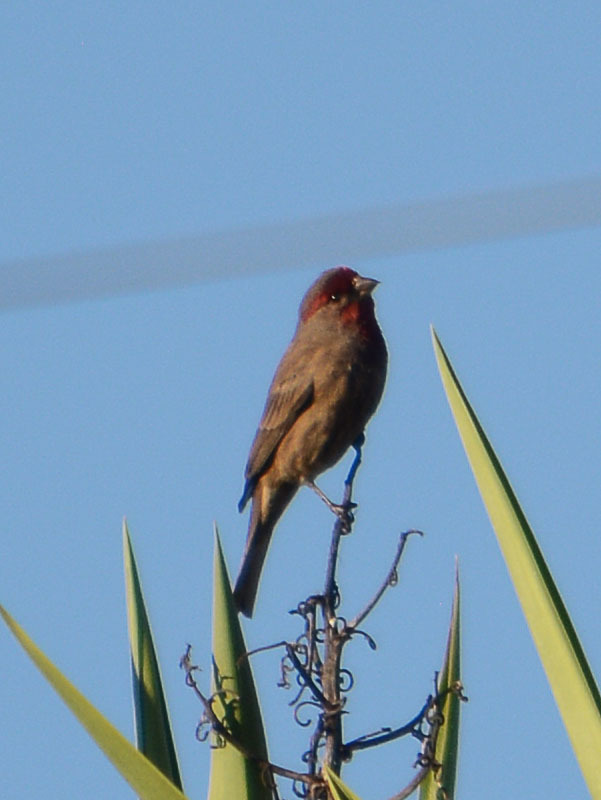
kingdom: Animalia
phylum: Chordata
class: Aves
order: Passeriformes
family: Fringillidae
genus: Haemorhous
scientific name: Haemorhous mexicanus
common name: House finch
